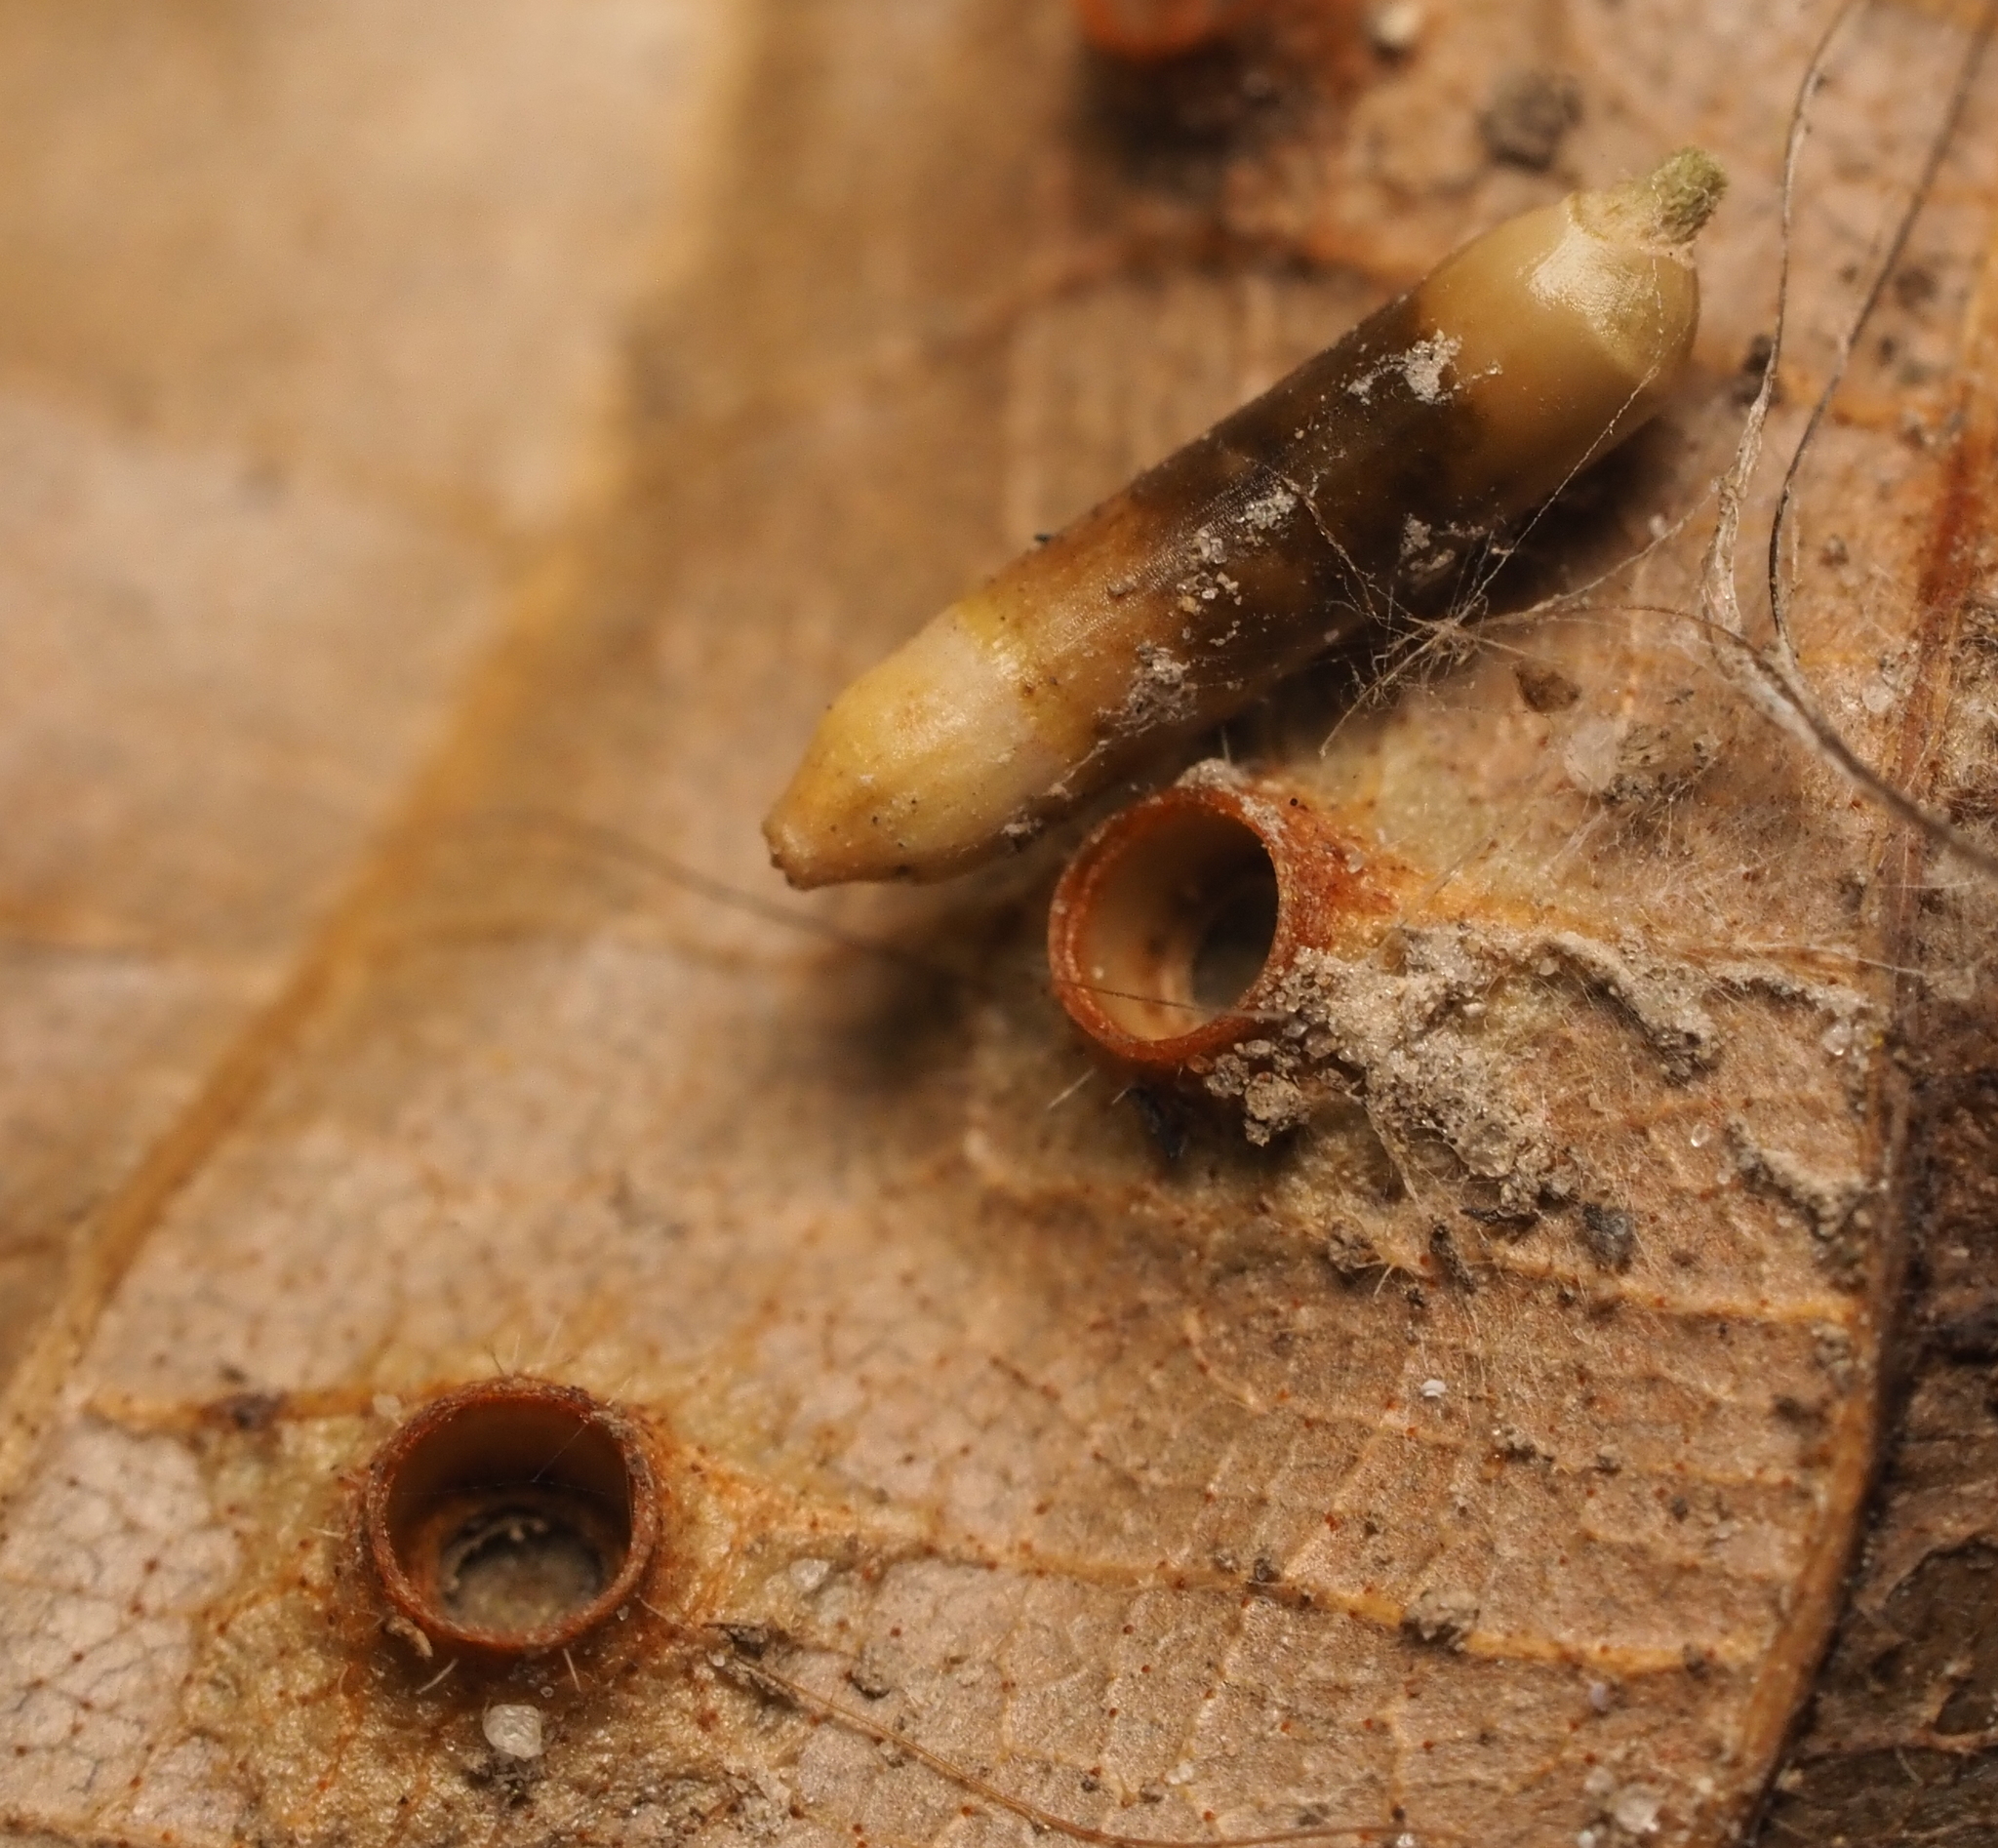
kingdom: Animalia
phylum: Arthropoda
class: Insecta
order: Diptera
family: Cecidomyiidae
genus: Caryomyia
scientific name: Caryomyia tubicola
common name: Hickory bullet gall midge
